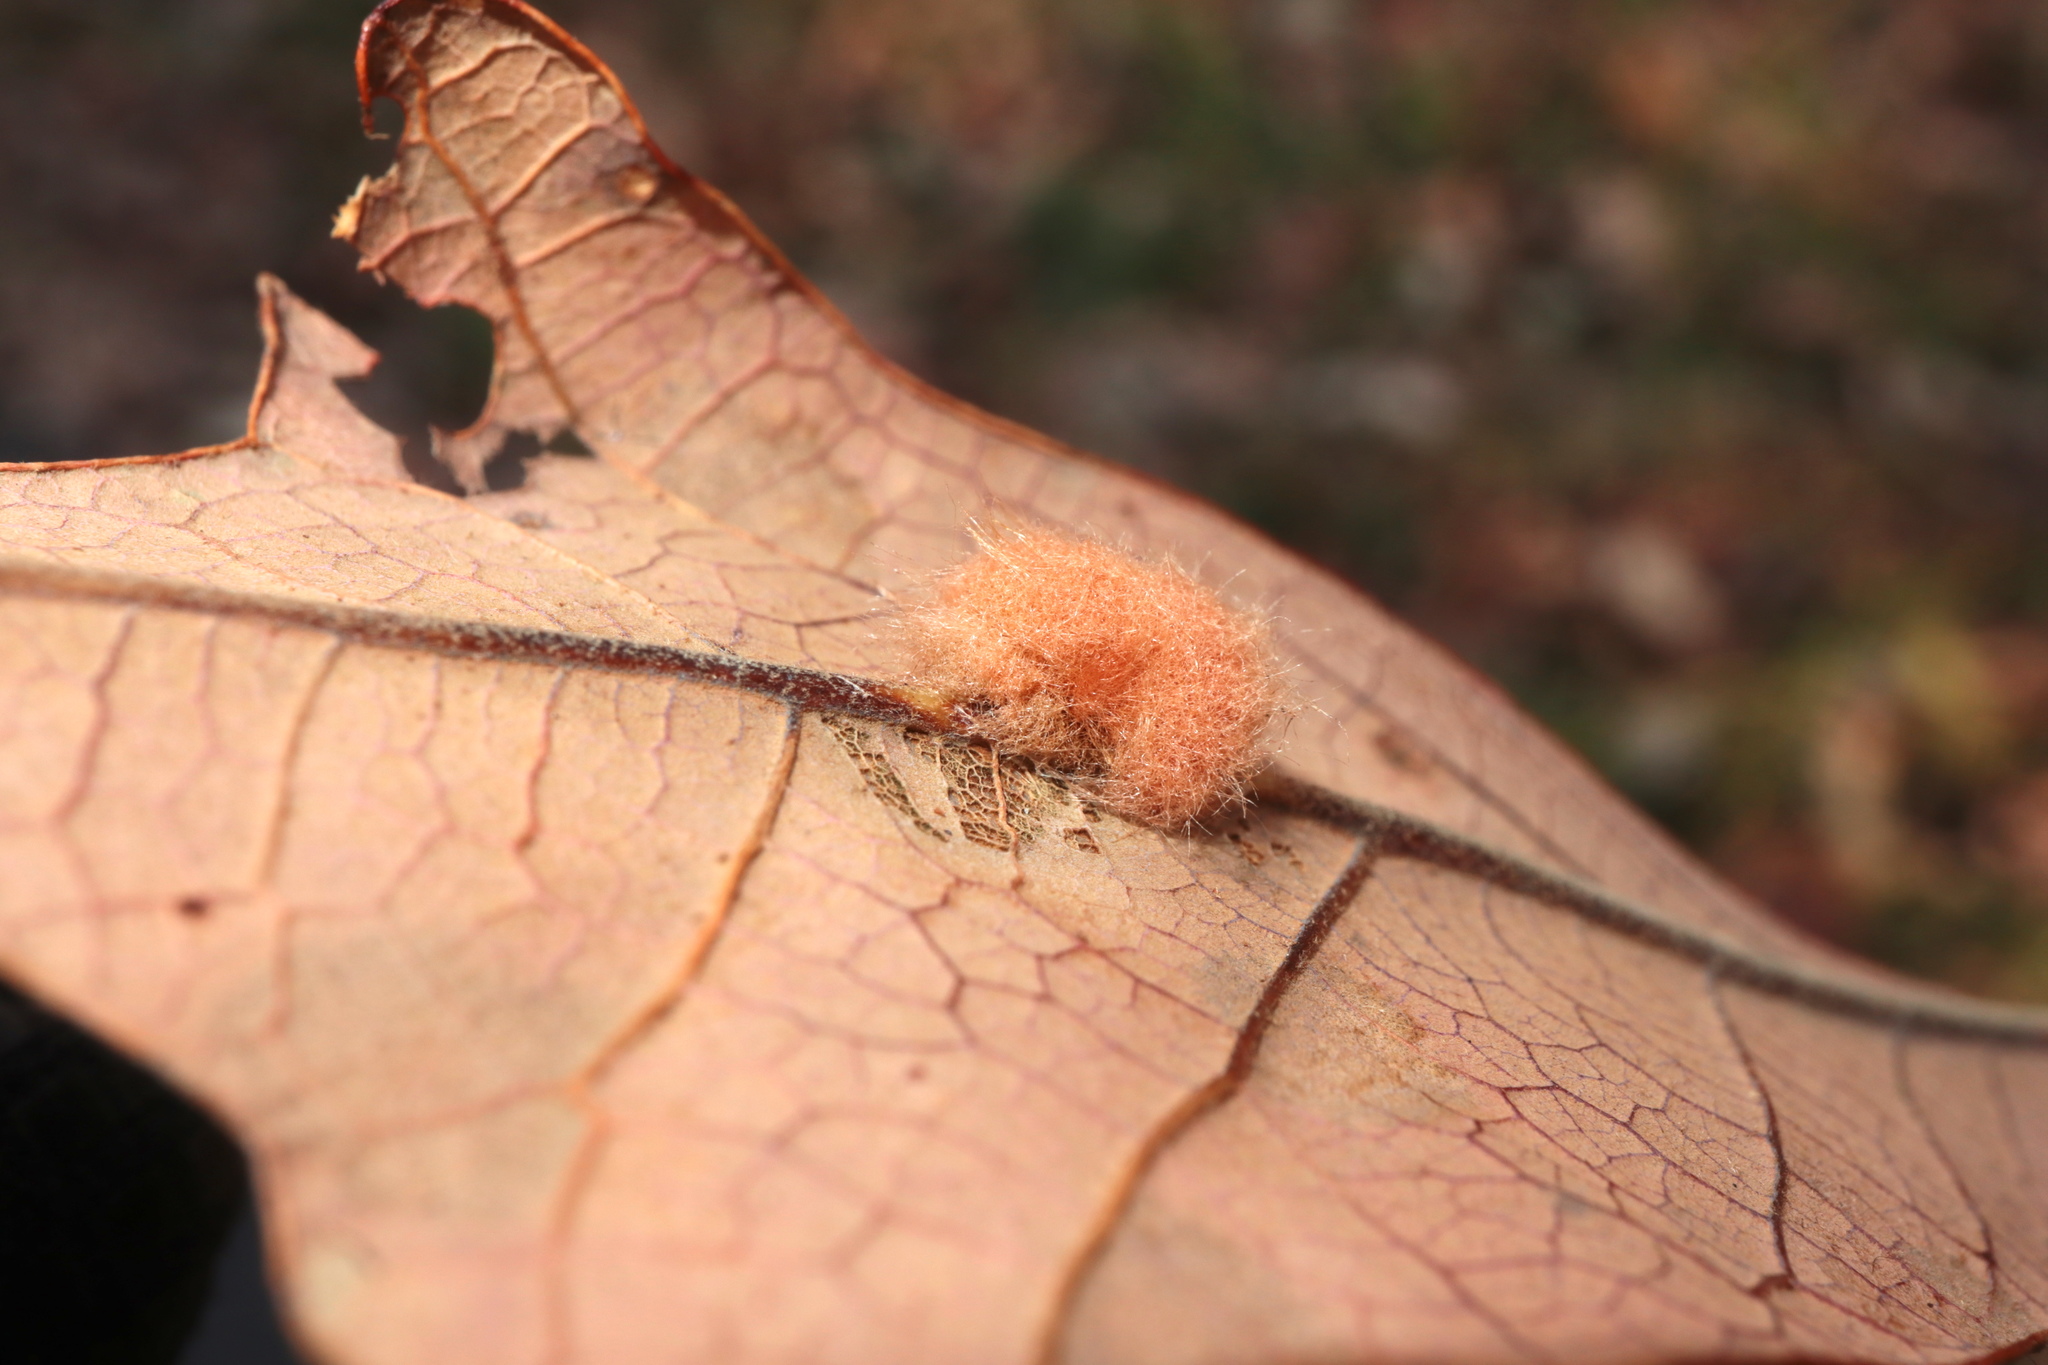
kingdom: Animalia
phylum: Arthropoda
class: Insecta
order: Hymenoptera
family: Cynipidae
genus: Andricus
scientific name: Andricus Druon pattoni
